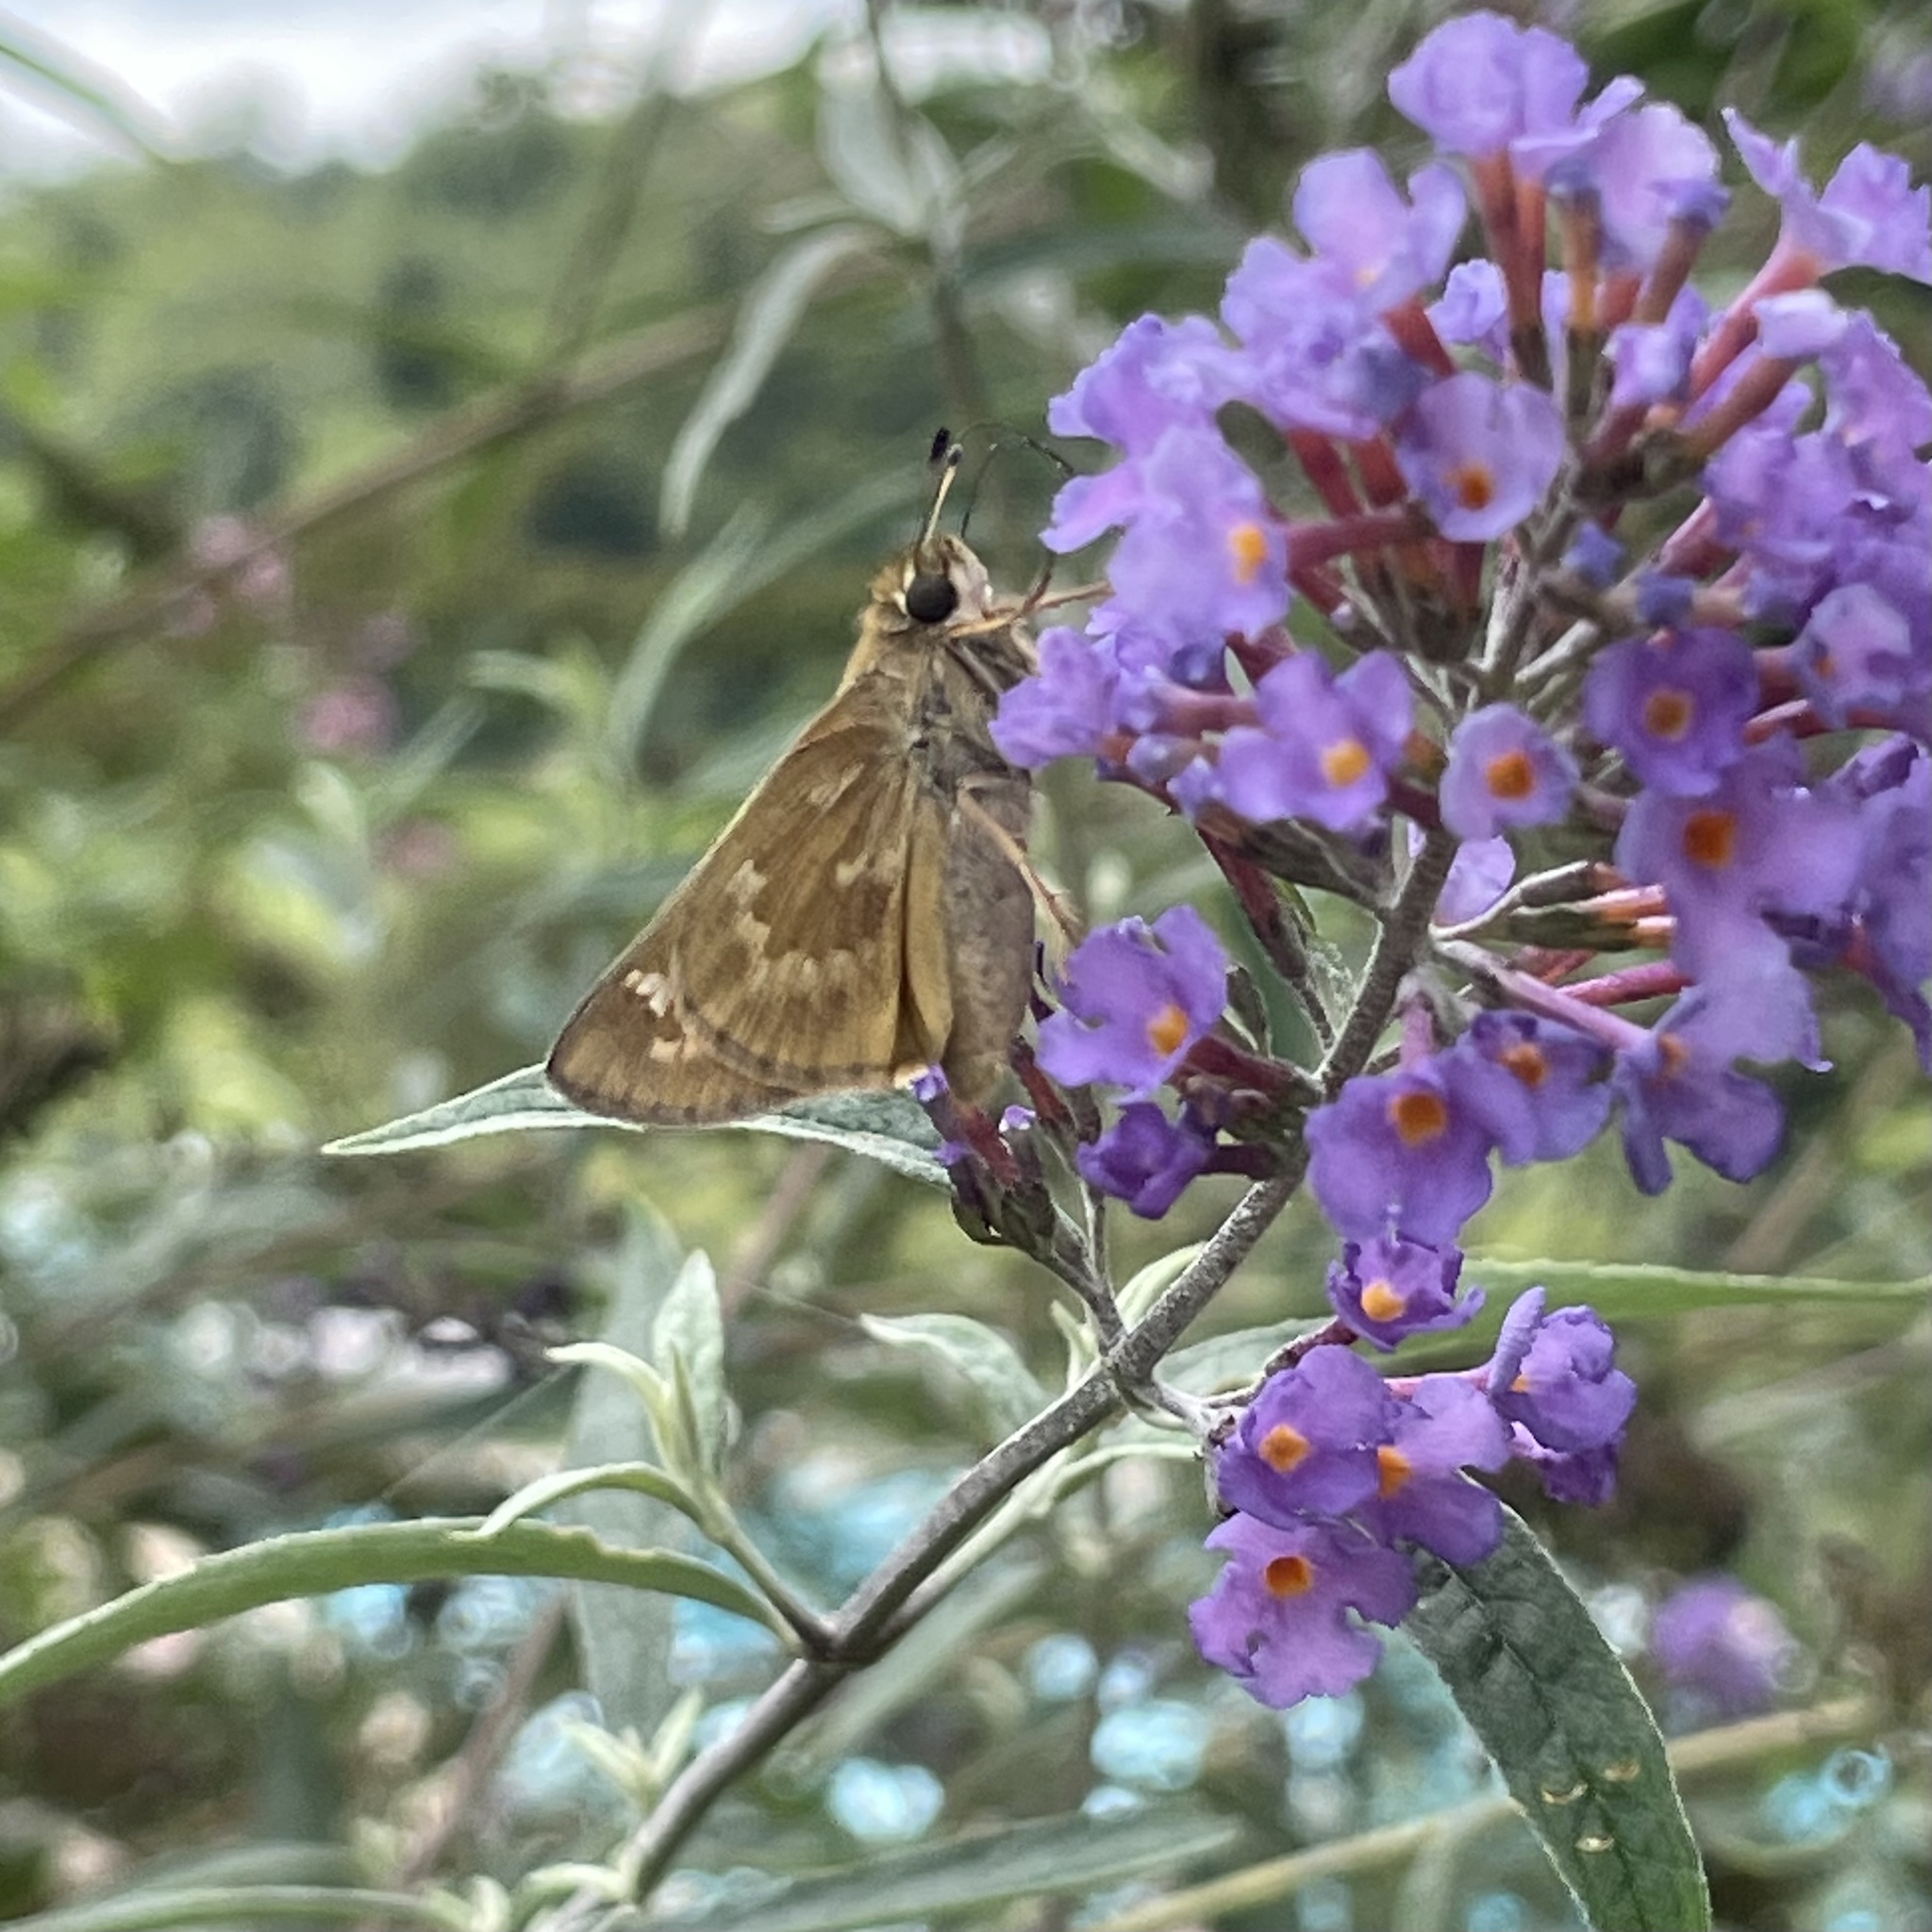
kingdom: Animalia
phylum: Arthropoda
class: Insecta
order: Lepidoptera
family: Hesperiidae
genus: Atalopedes
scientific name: Atalopedes
